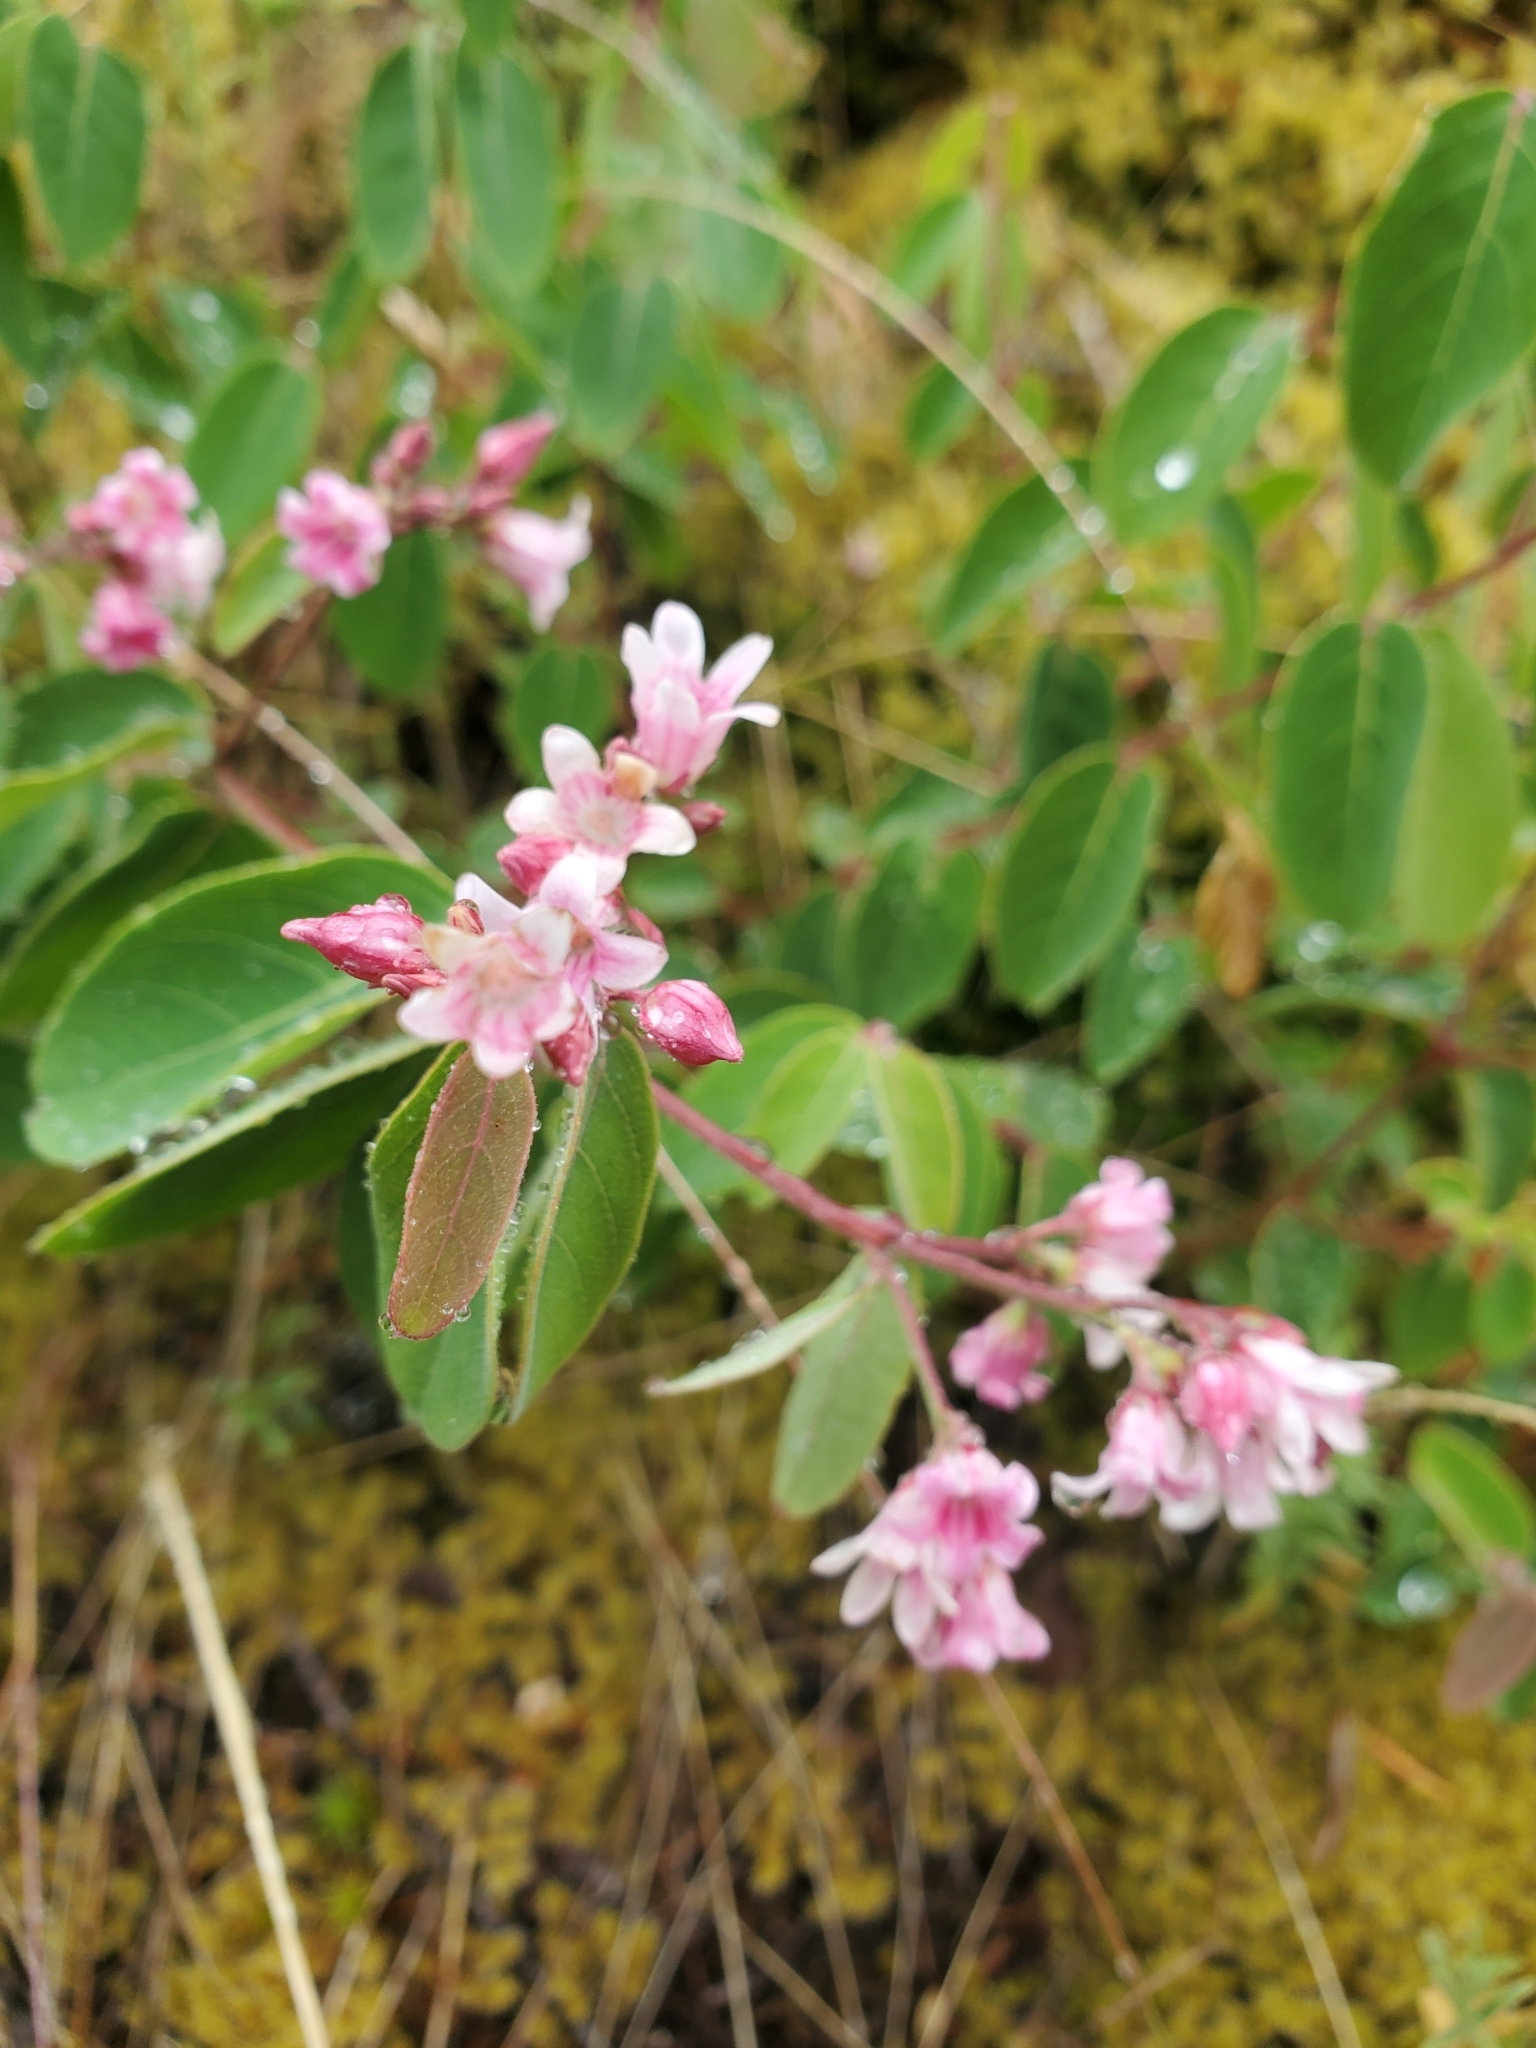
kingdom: Plantae
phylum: Tracheophyta
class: Magnoliopsida
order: Gentianales
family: Apocynaceae
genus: Apocynum
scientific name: Apocynum androsaemifolium
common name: Spreading dogbane
